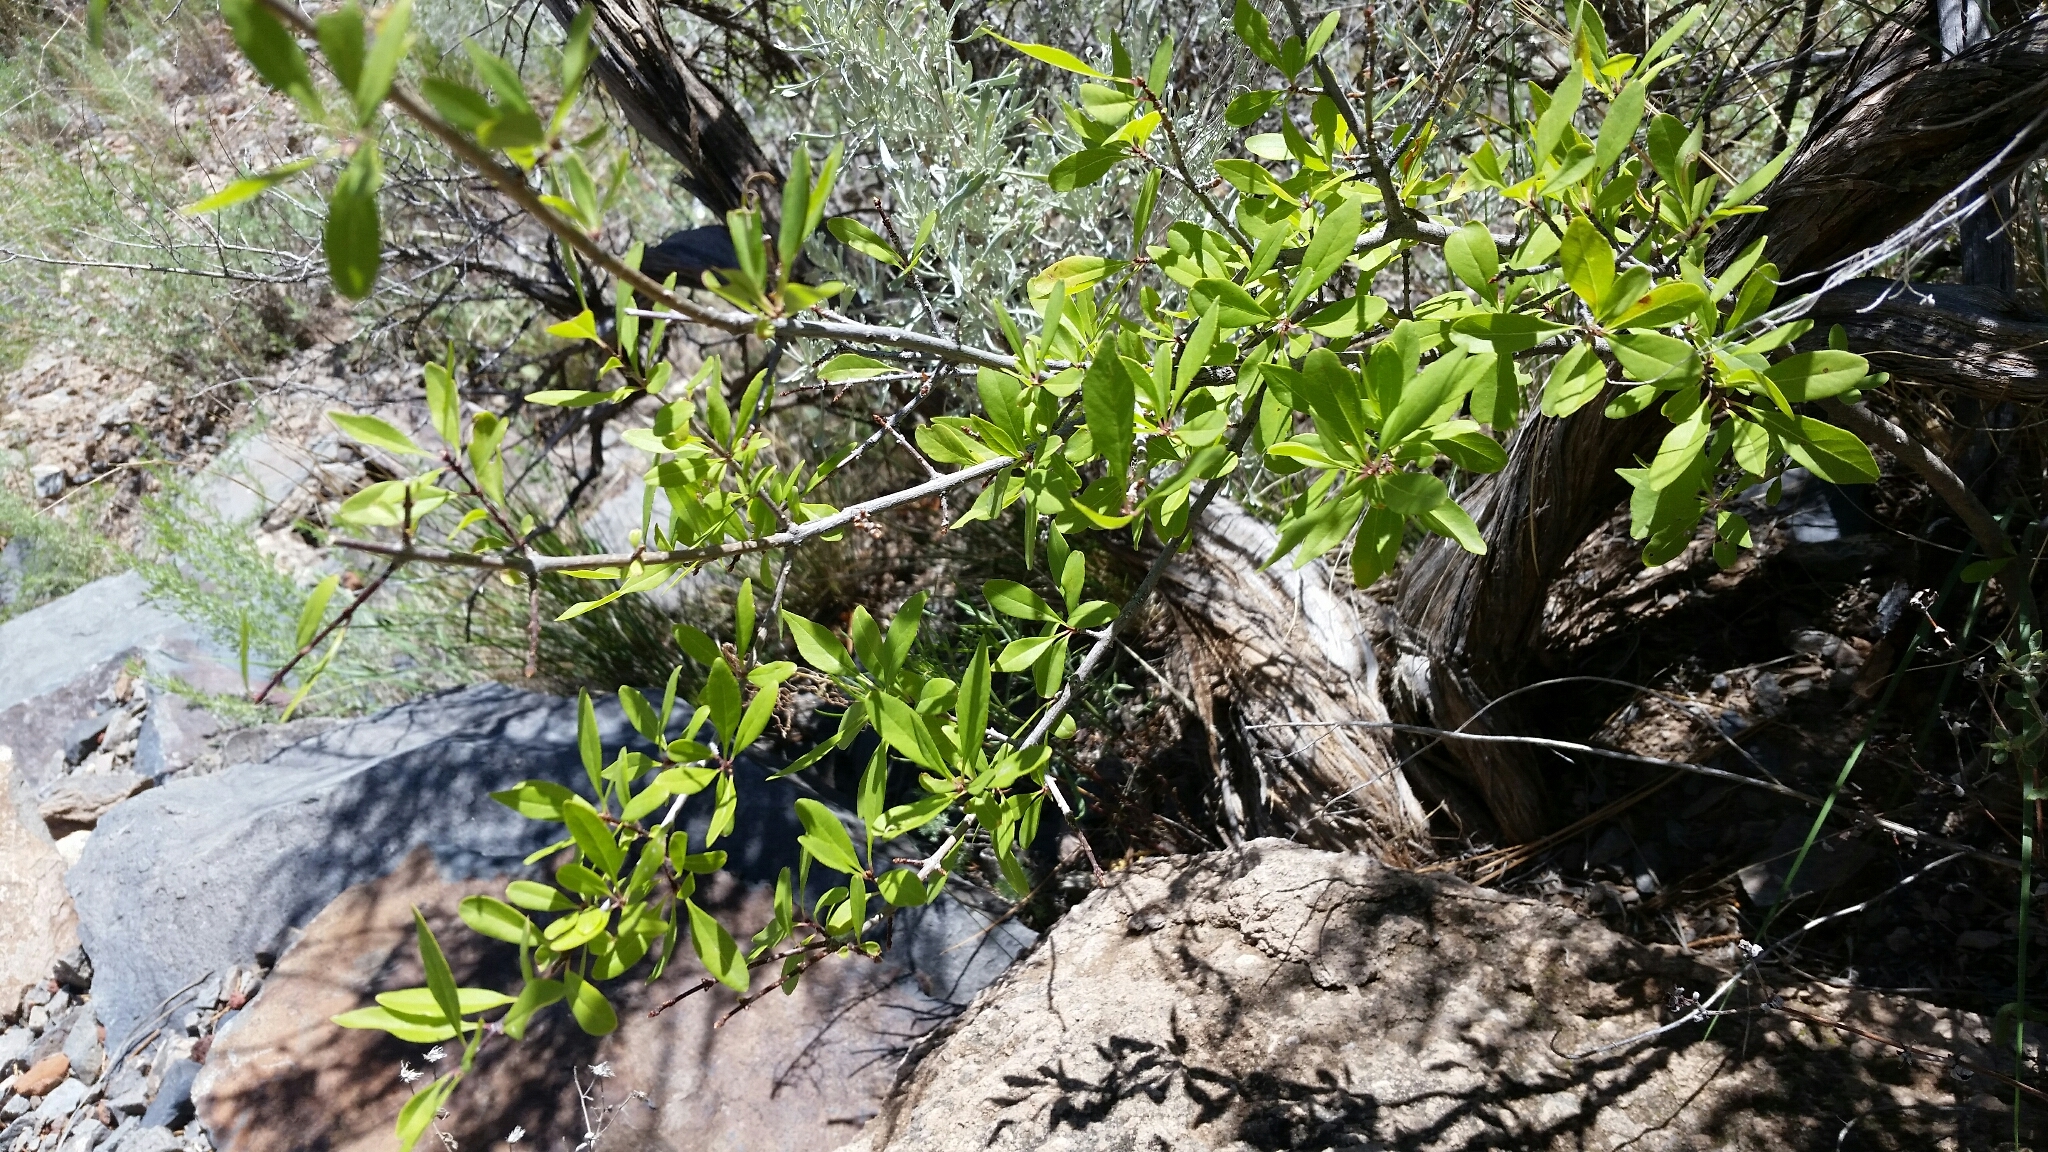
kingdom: Plantae
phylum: Tracheophyta
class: Magnoliopsida
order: Solanales
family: Solanaceae
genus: Lycium
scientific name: Lycium pallidum
